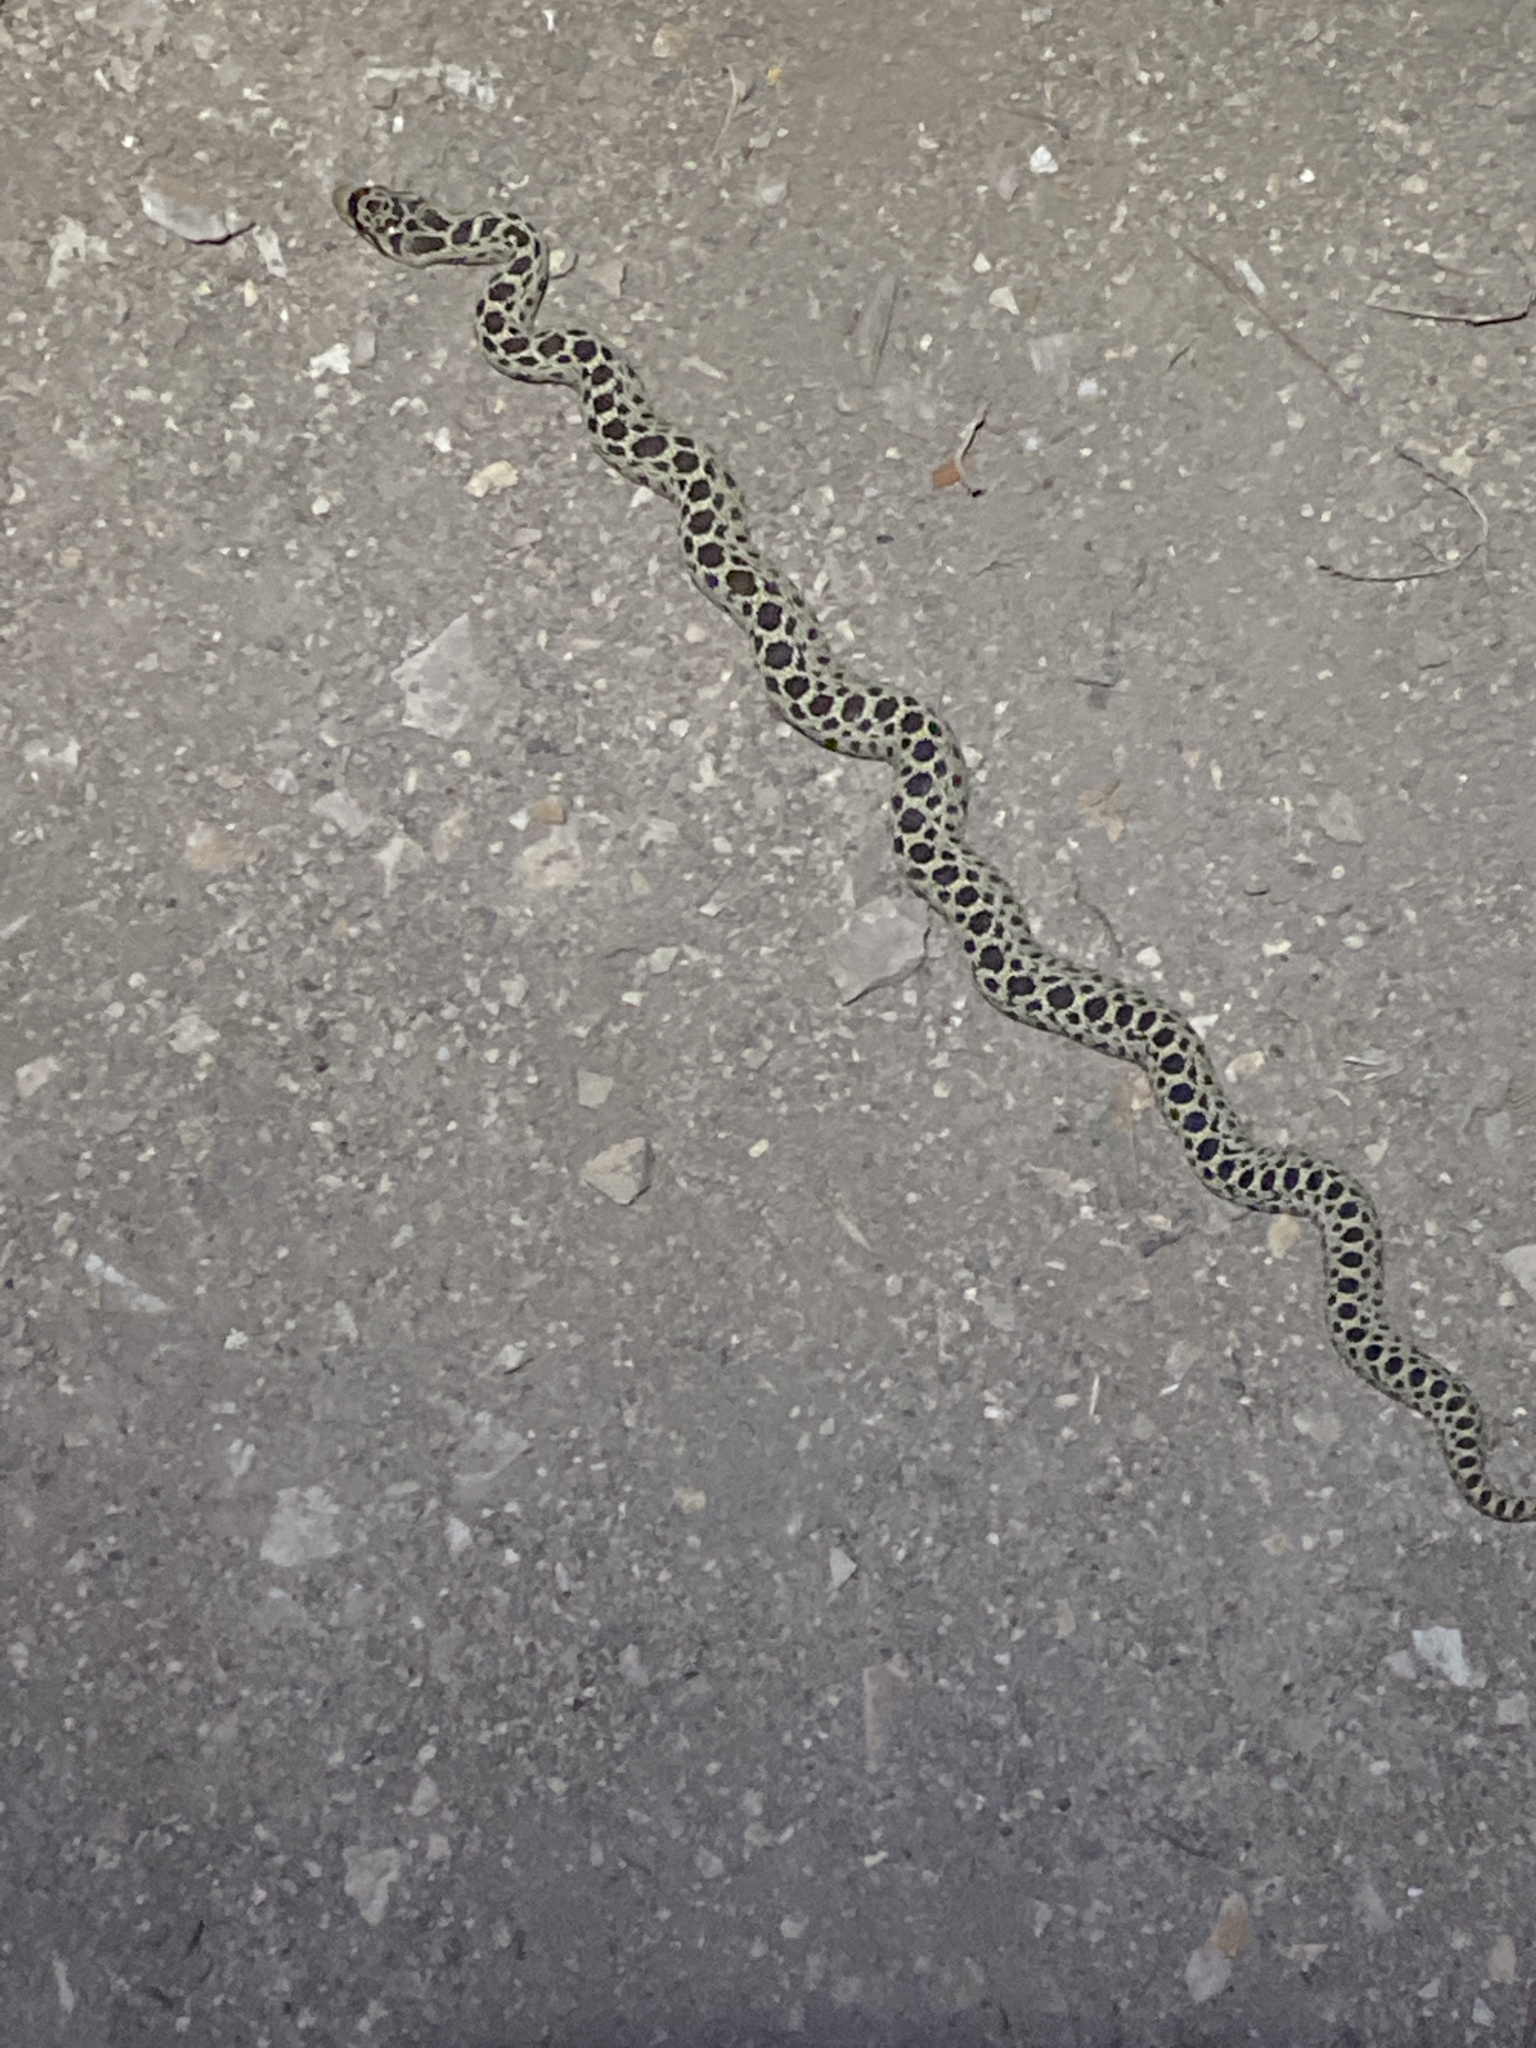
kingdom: Animalia
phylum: Chordata
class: Squamata
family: Colubridae
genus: Pituophis
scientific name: Pituophis catenifer
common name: Gopher snake
